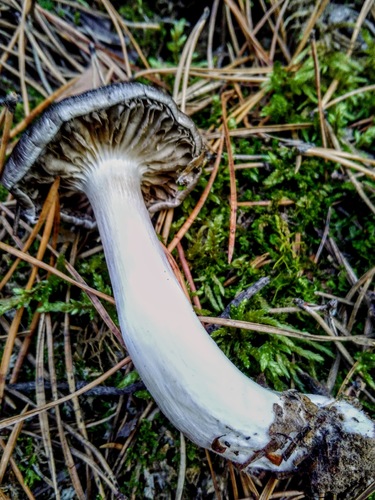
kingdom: Fungi
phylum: Basidiomycota
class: Agaricomycetes
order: Agaricales
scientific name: Agaricales
